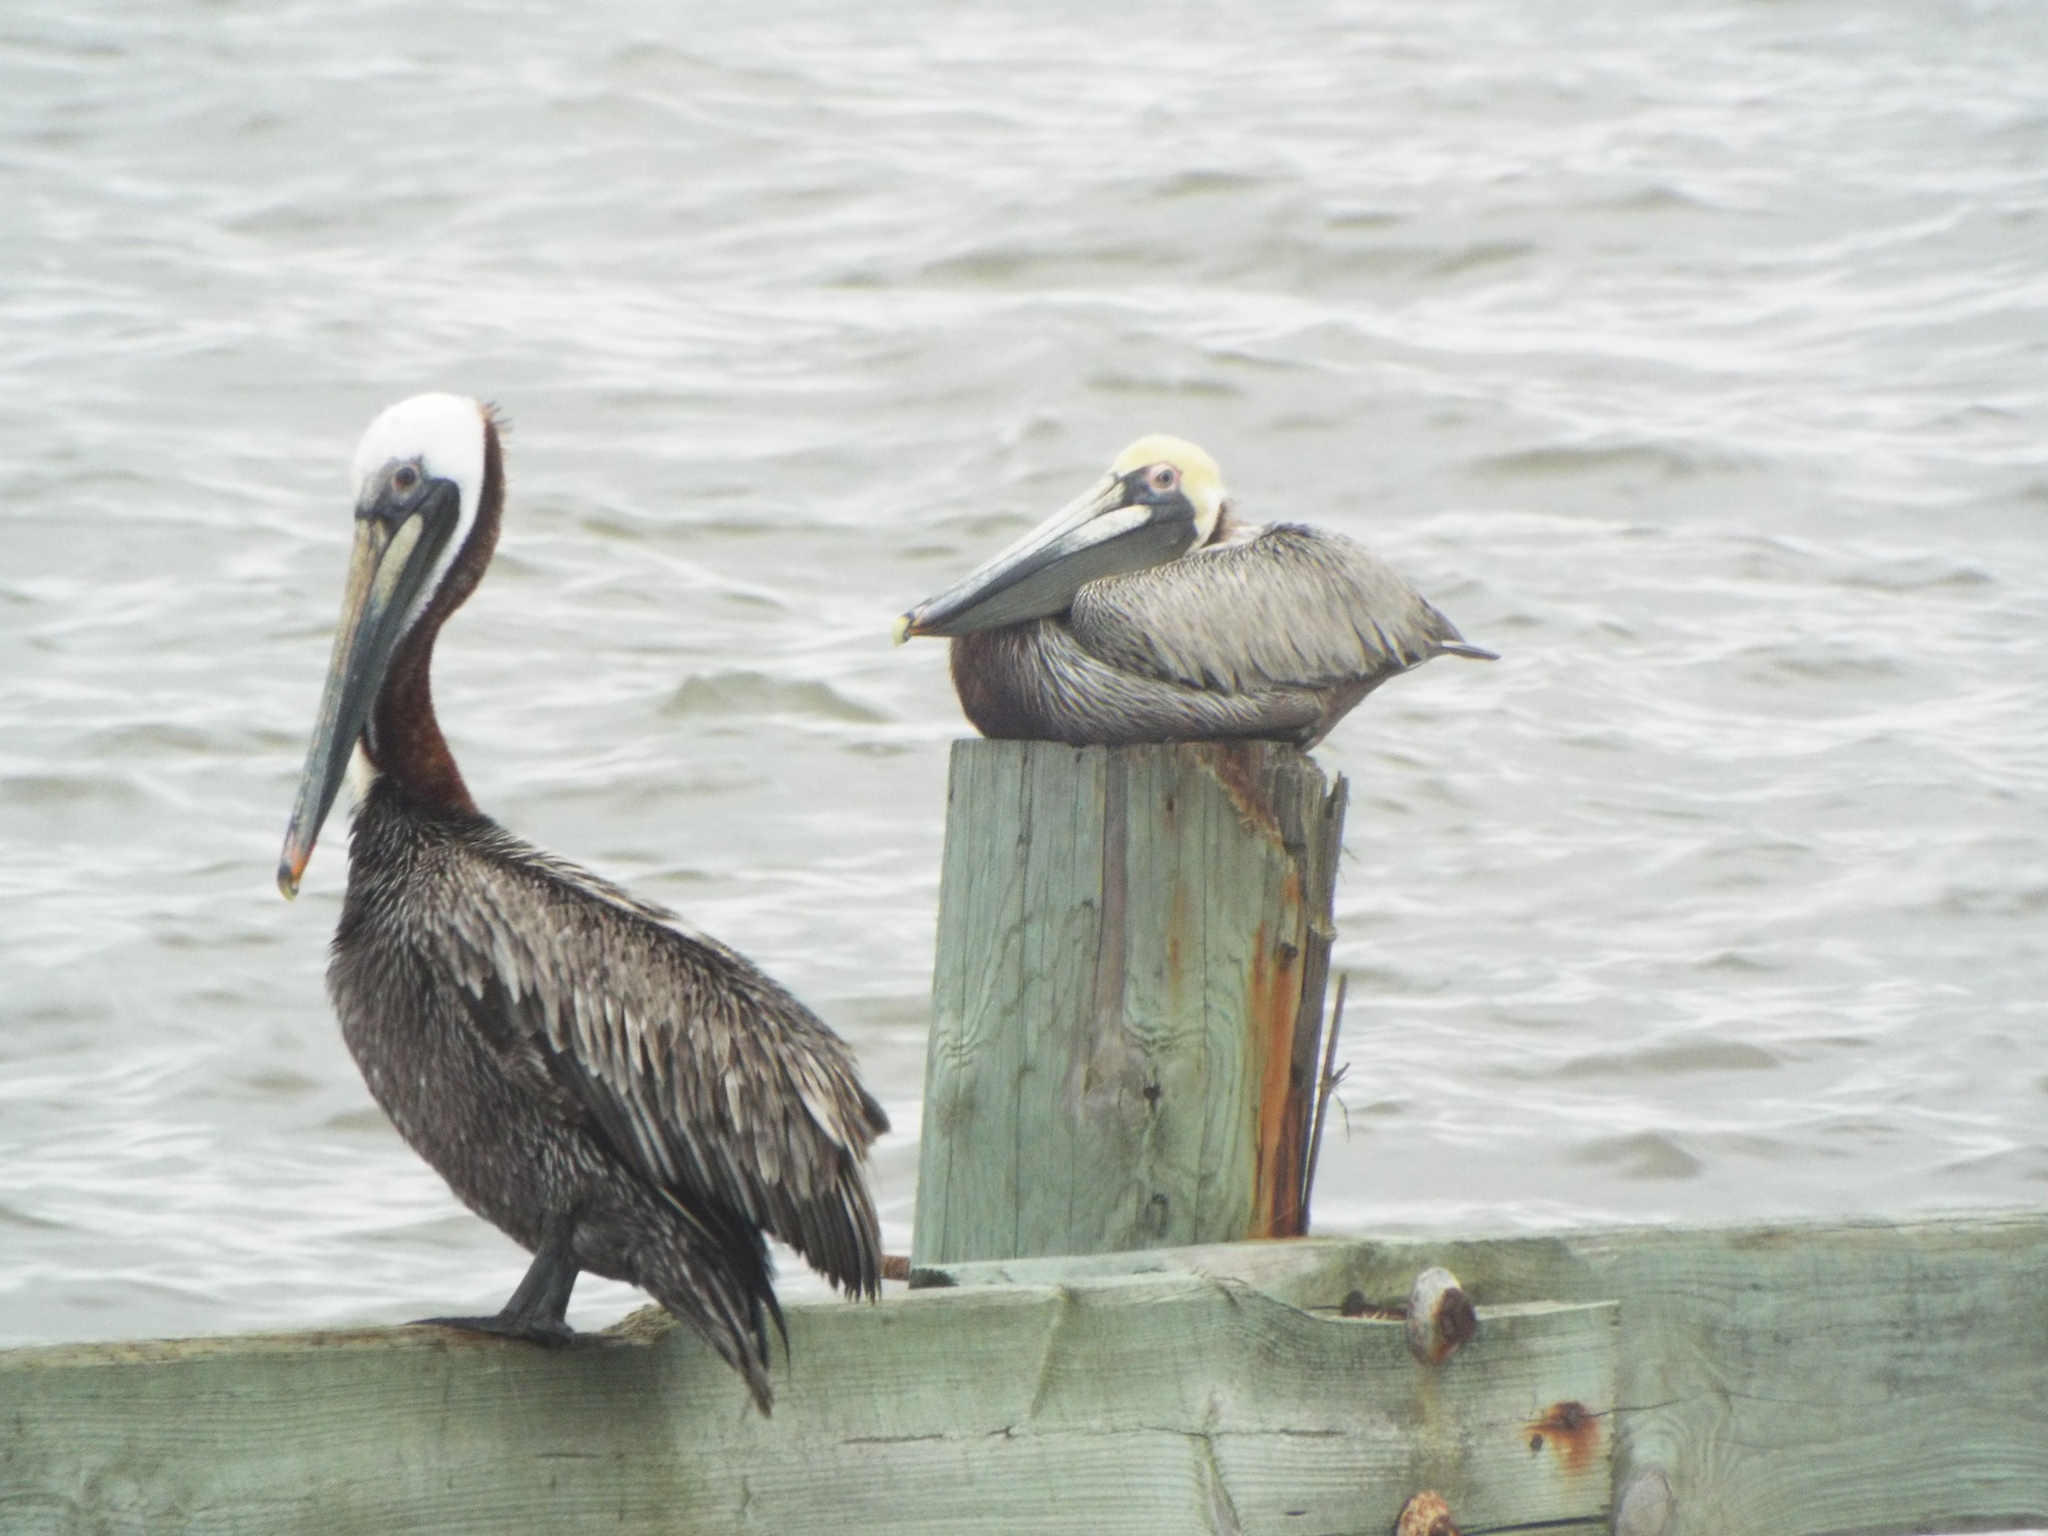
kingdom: Animalia
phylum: Chordata
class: Aves
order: Pelecaniformes
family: Pelecanidae
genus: Pelecanus
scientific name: Pelecanus occidentalis
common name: Brown pelican
